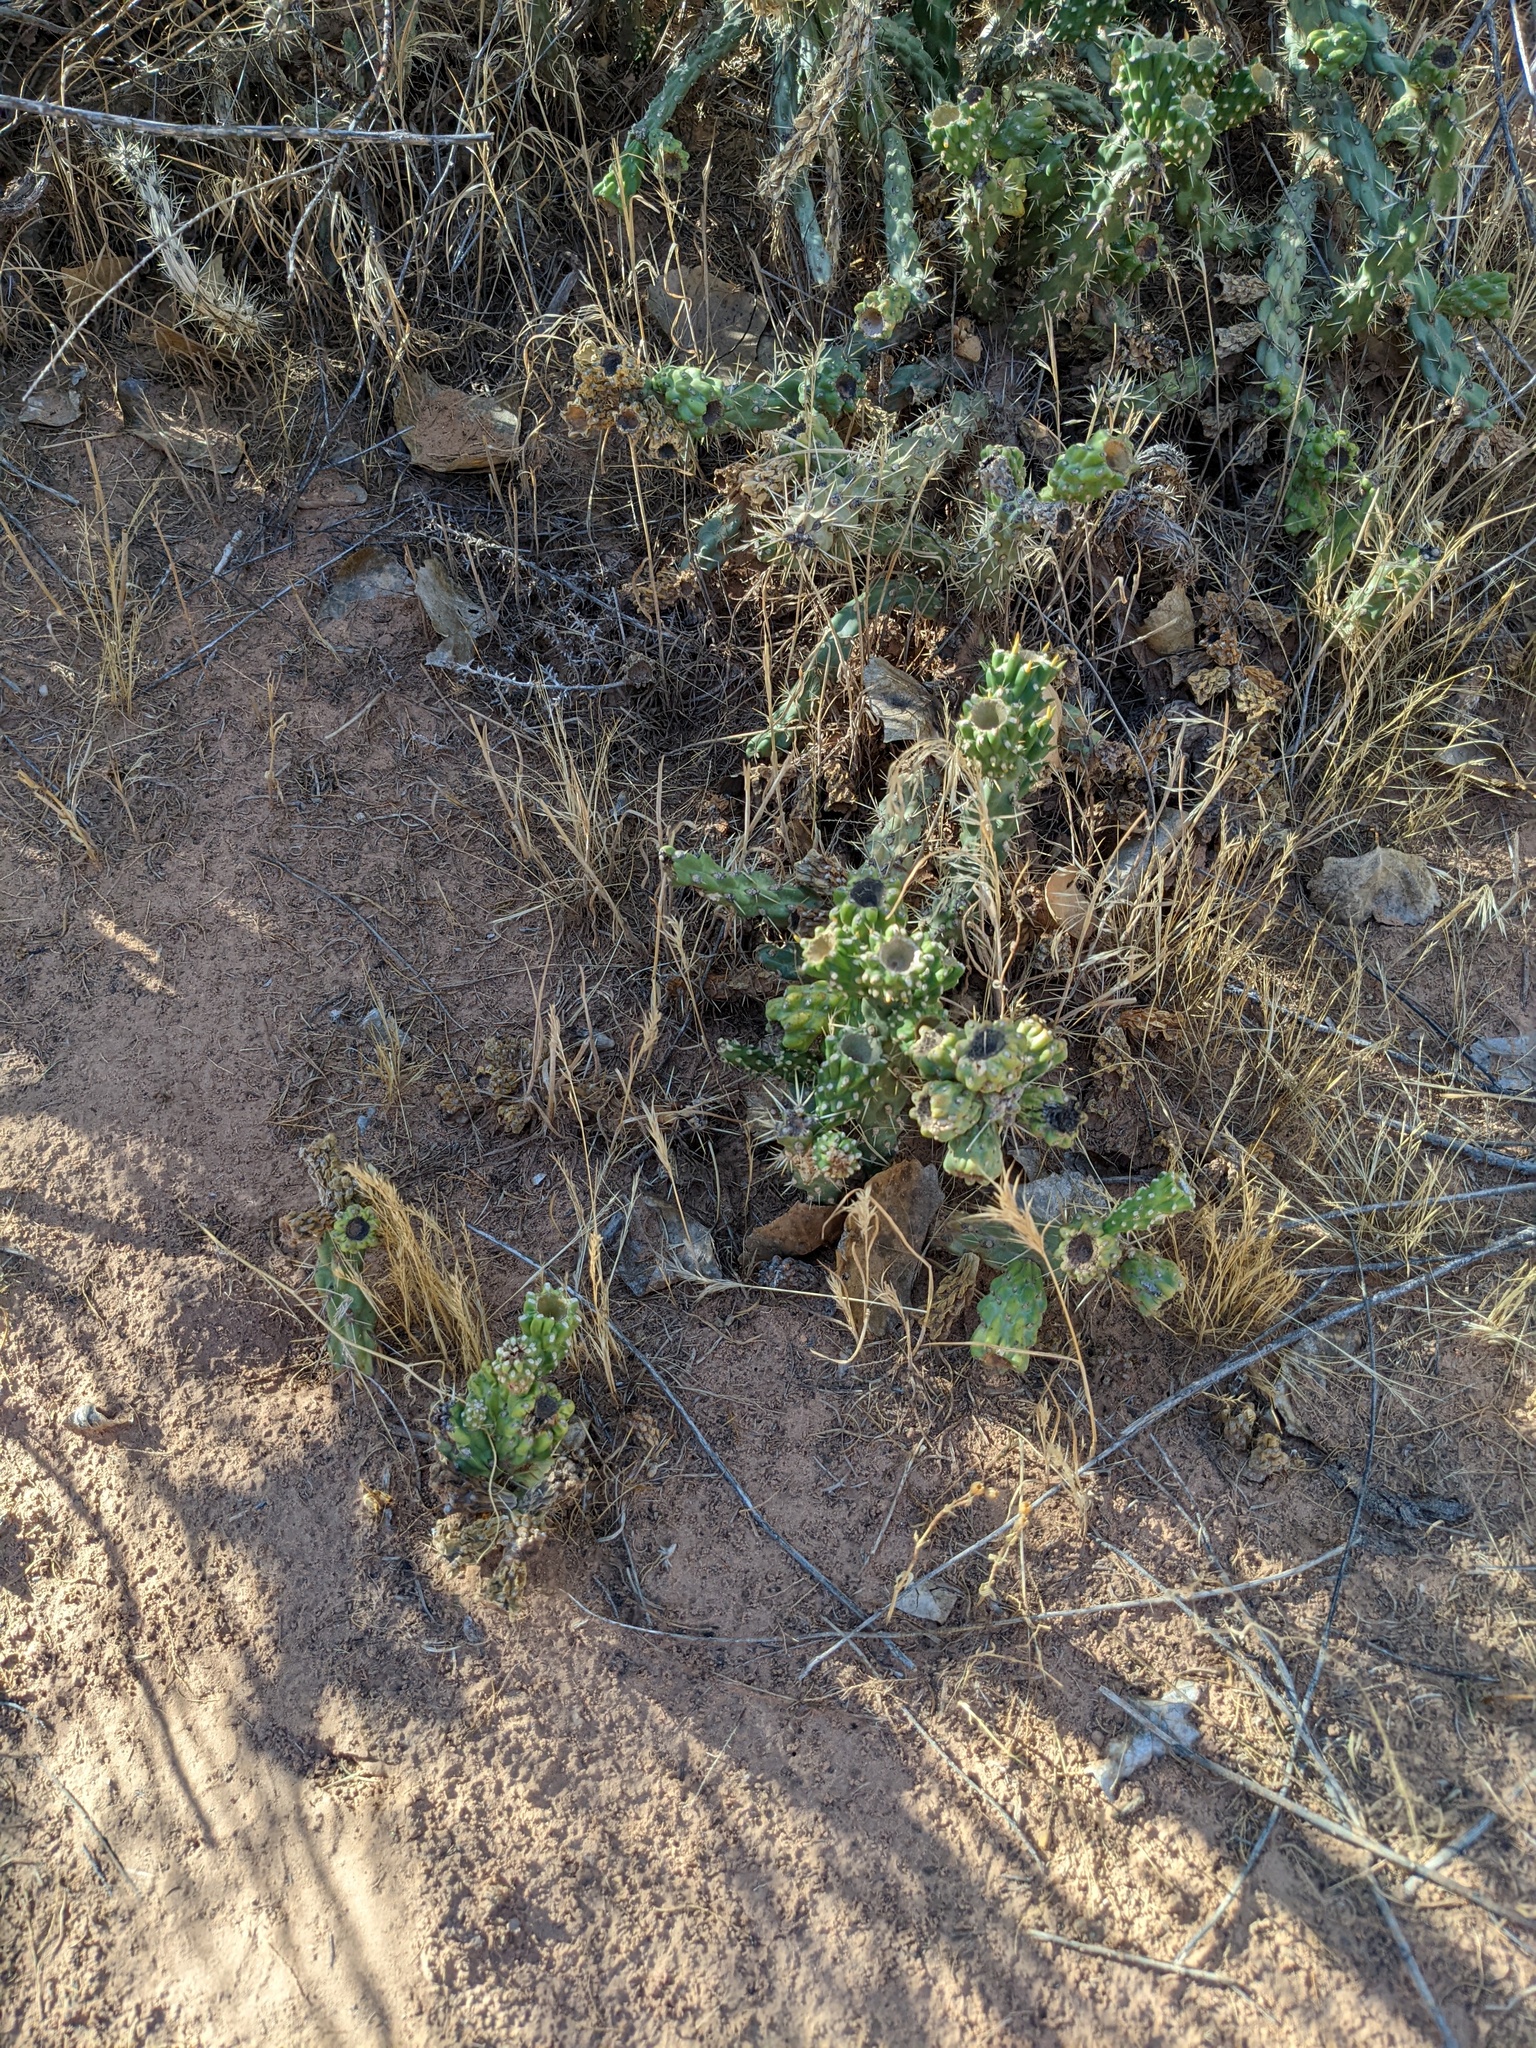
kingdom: Plantae
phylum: Tracheophyta
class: Magnoliopsida
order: Caryophyllales
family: Cactaceae
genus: Cylindropuntia
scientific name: Cylindropuntia viridiflora
